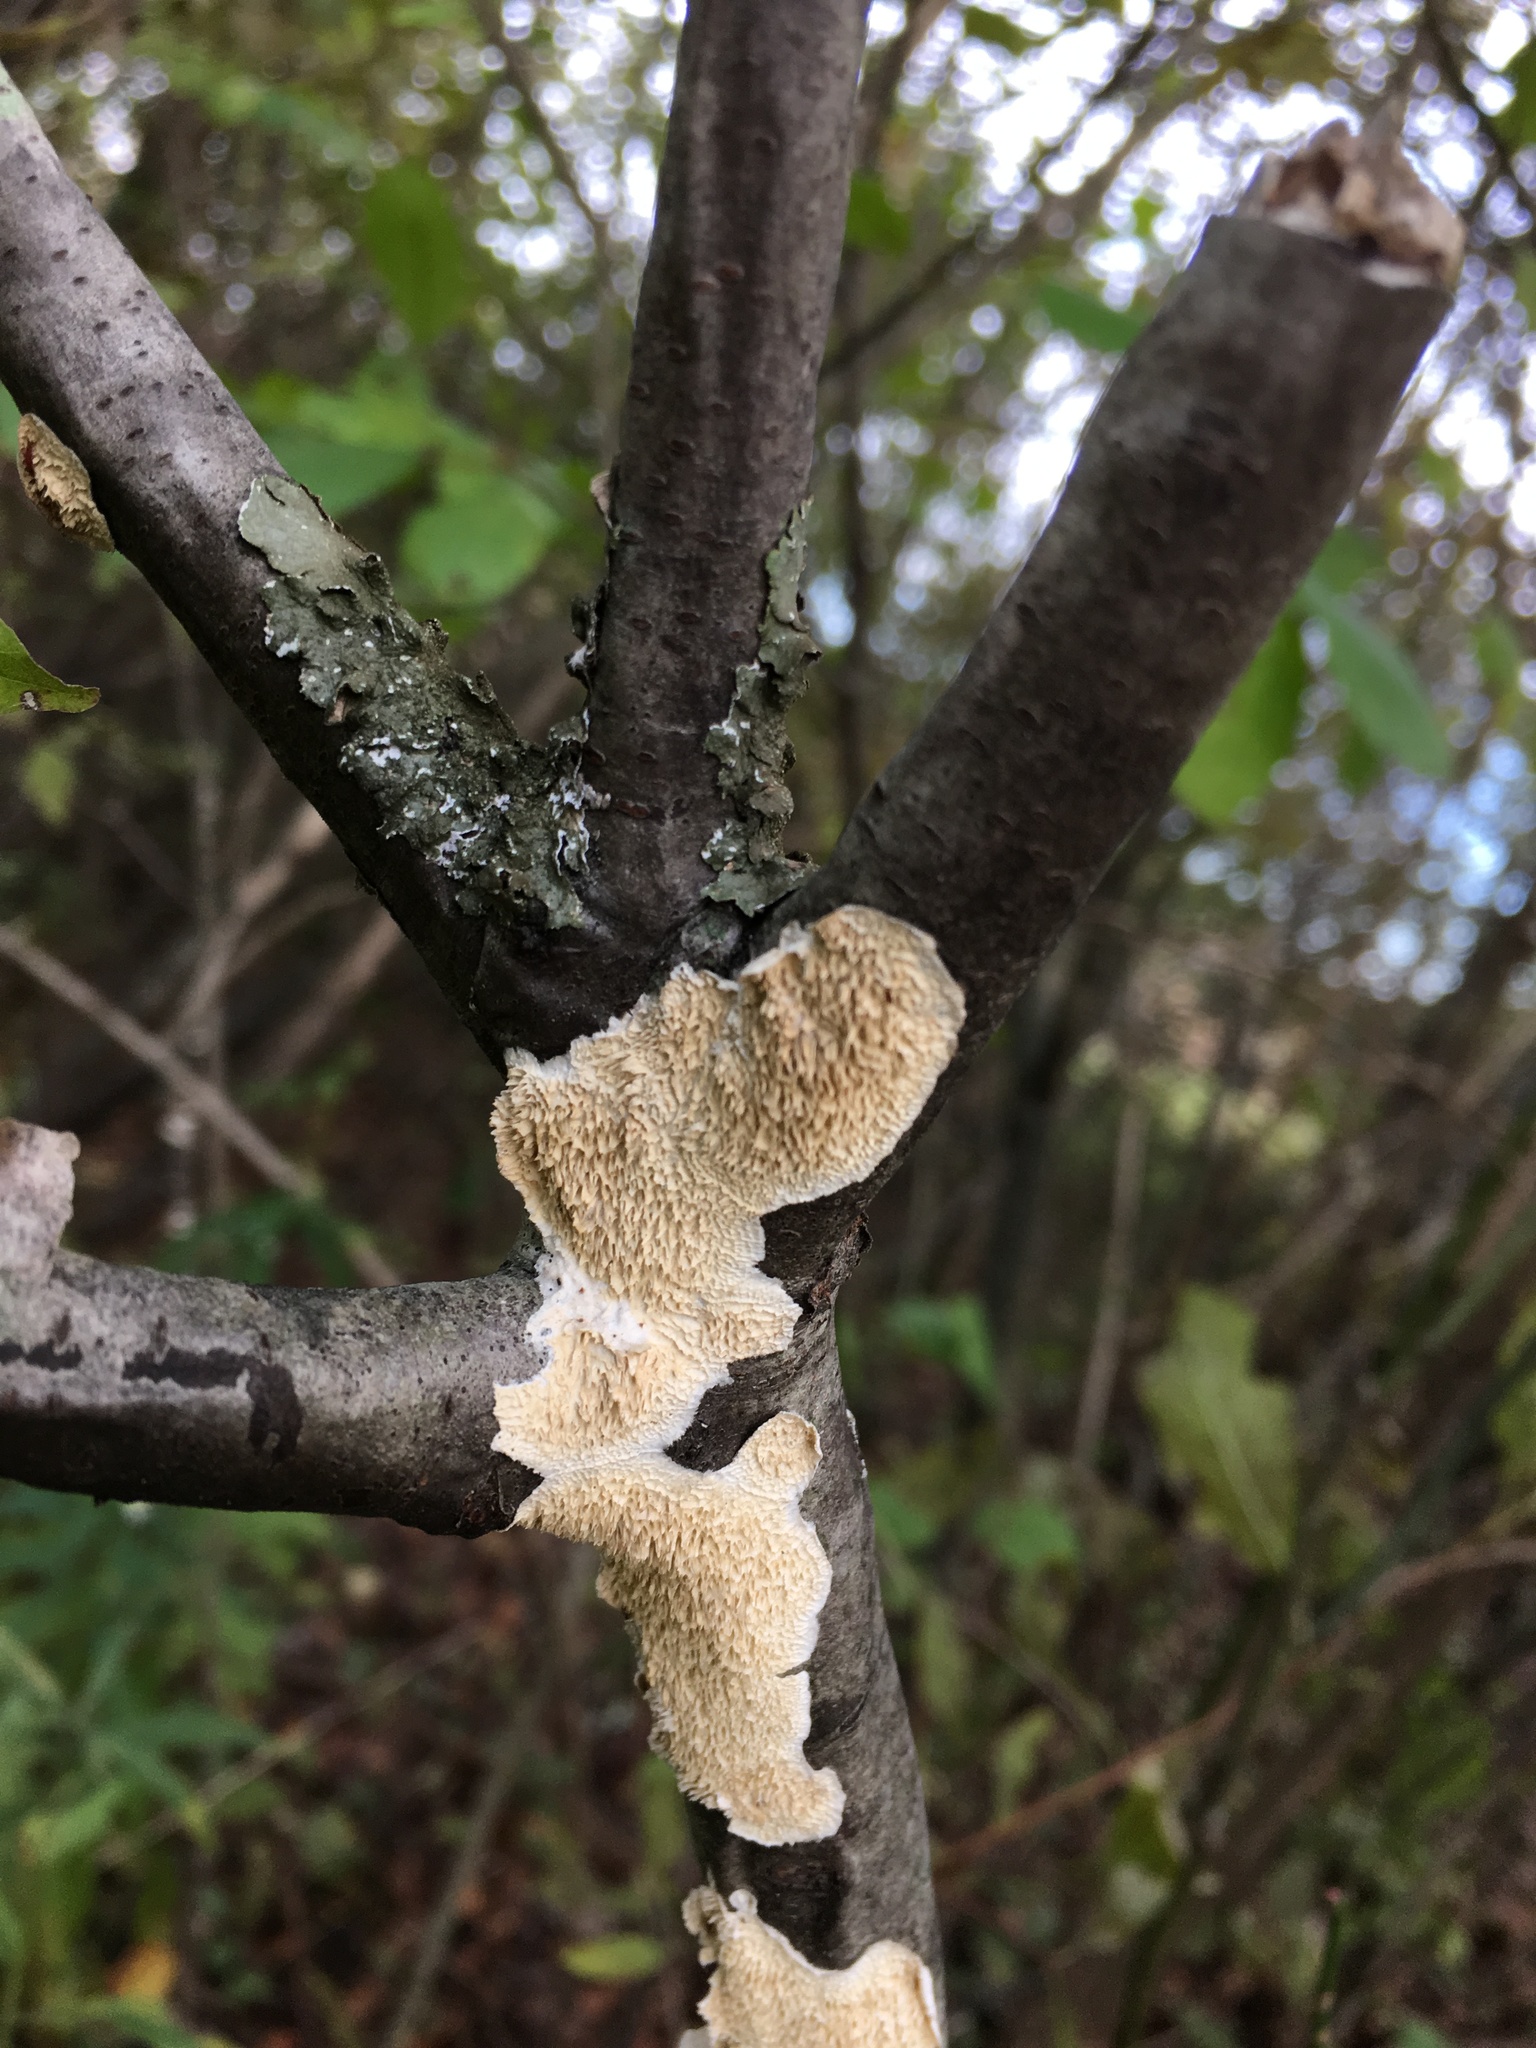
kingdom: Fungi
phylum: Basidiomycota
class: Agaricomycetes
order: Polyporales
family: Irpicaceae
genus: Irpex
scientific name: Irpex lacteus
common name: Milk-white toothed polypore
